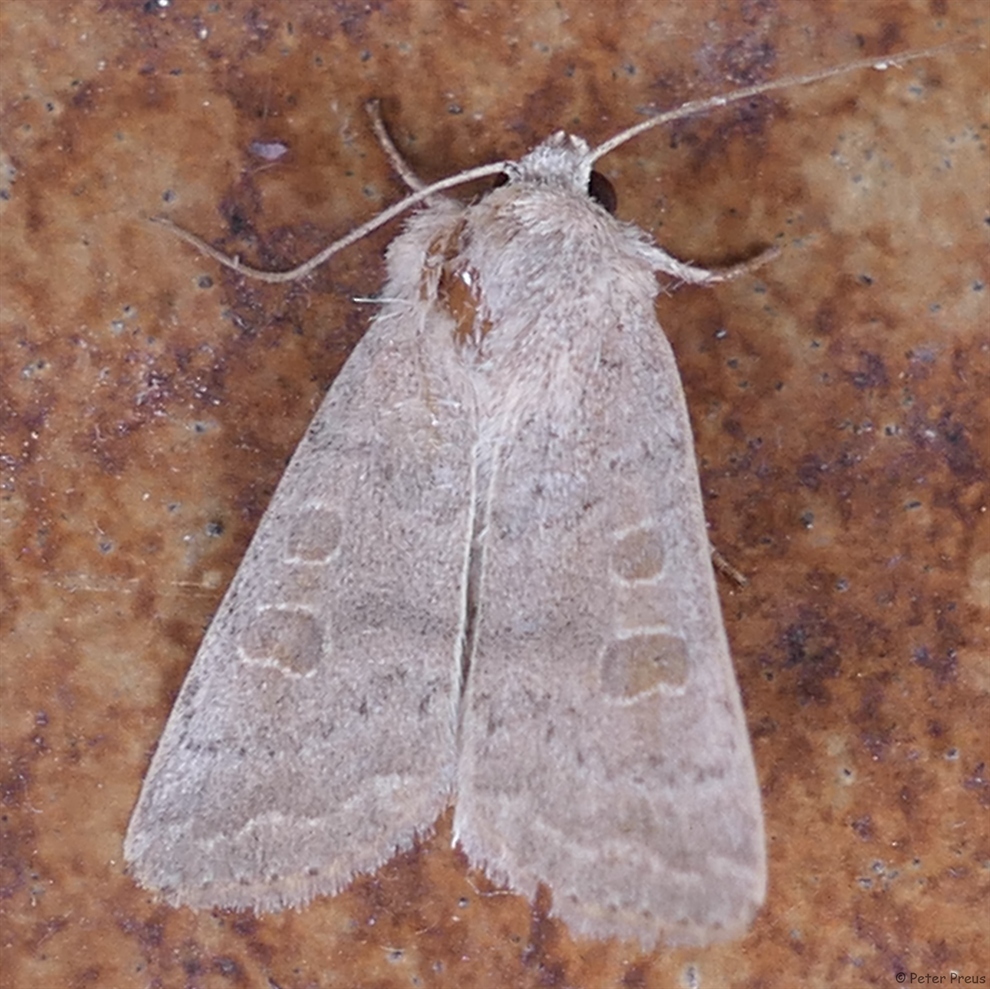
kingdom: Animalia
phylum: Arthropoda
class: Insecta
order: Lepidoptera
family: Noctuidae
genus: Hoplodrina
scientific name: Hoplodrina ambigua
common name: Vine's rustic
